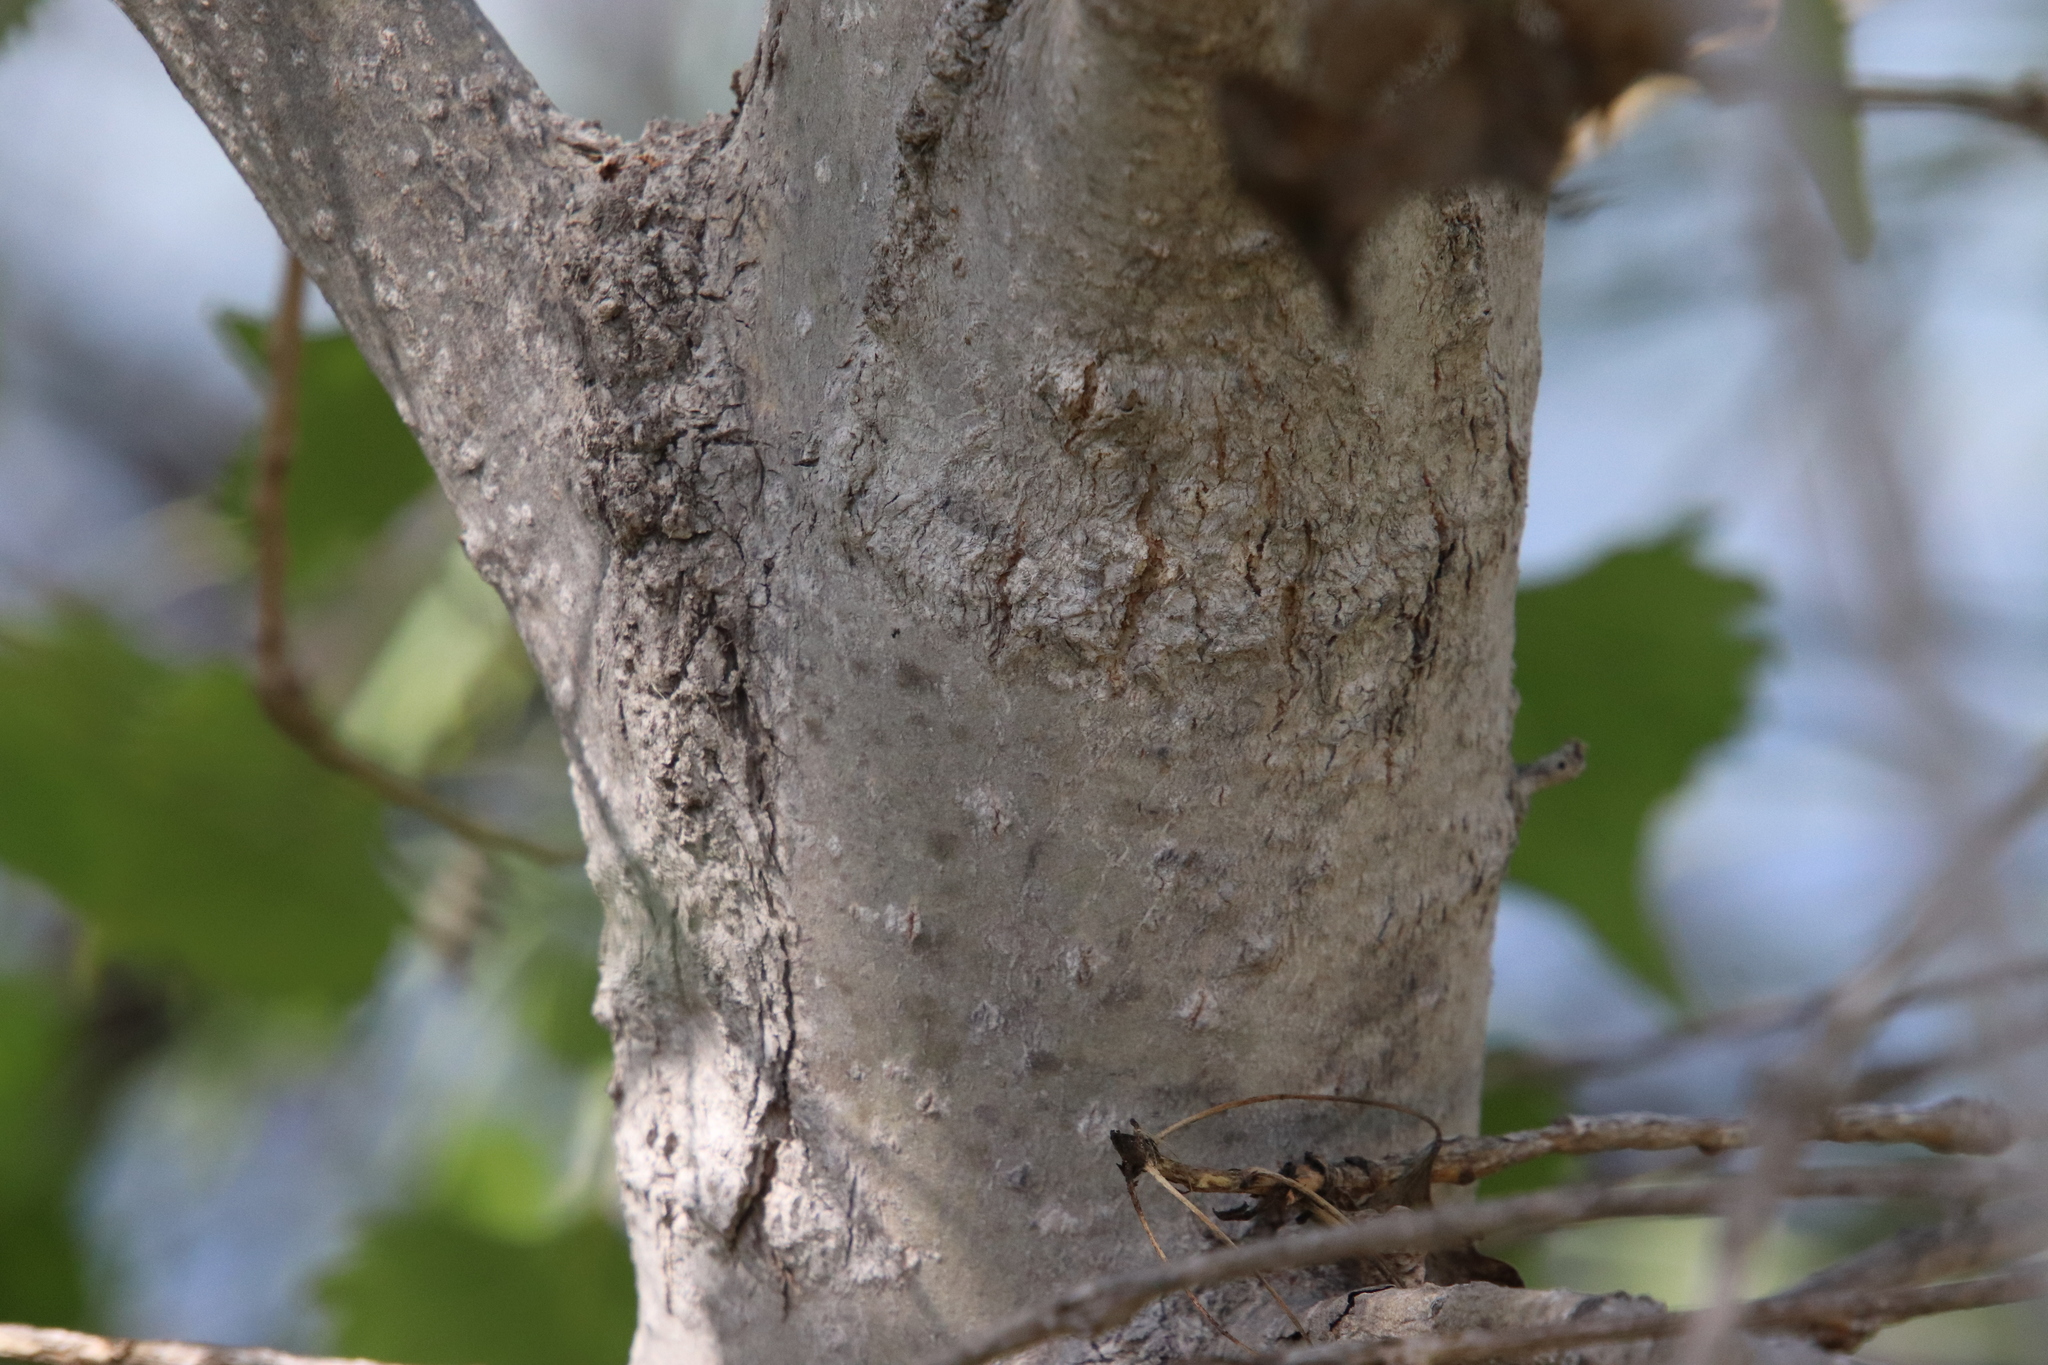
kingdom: Plantae
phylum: Tracheophyta
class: Magnoliopsida
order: Malpighiales
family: Salicaceae
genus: Populus
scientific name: Populus fremontii
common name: Fremont's cottonwood
